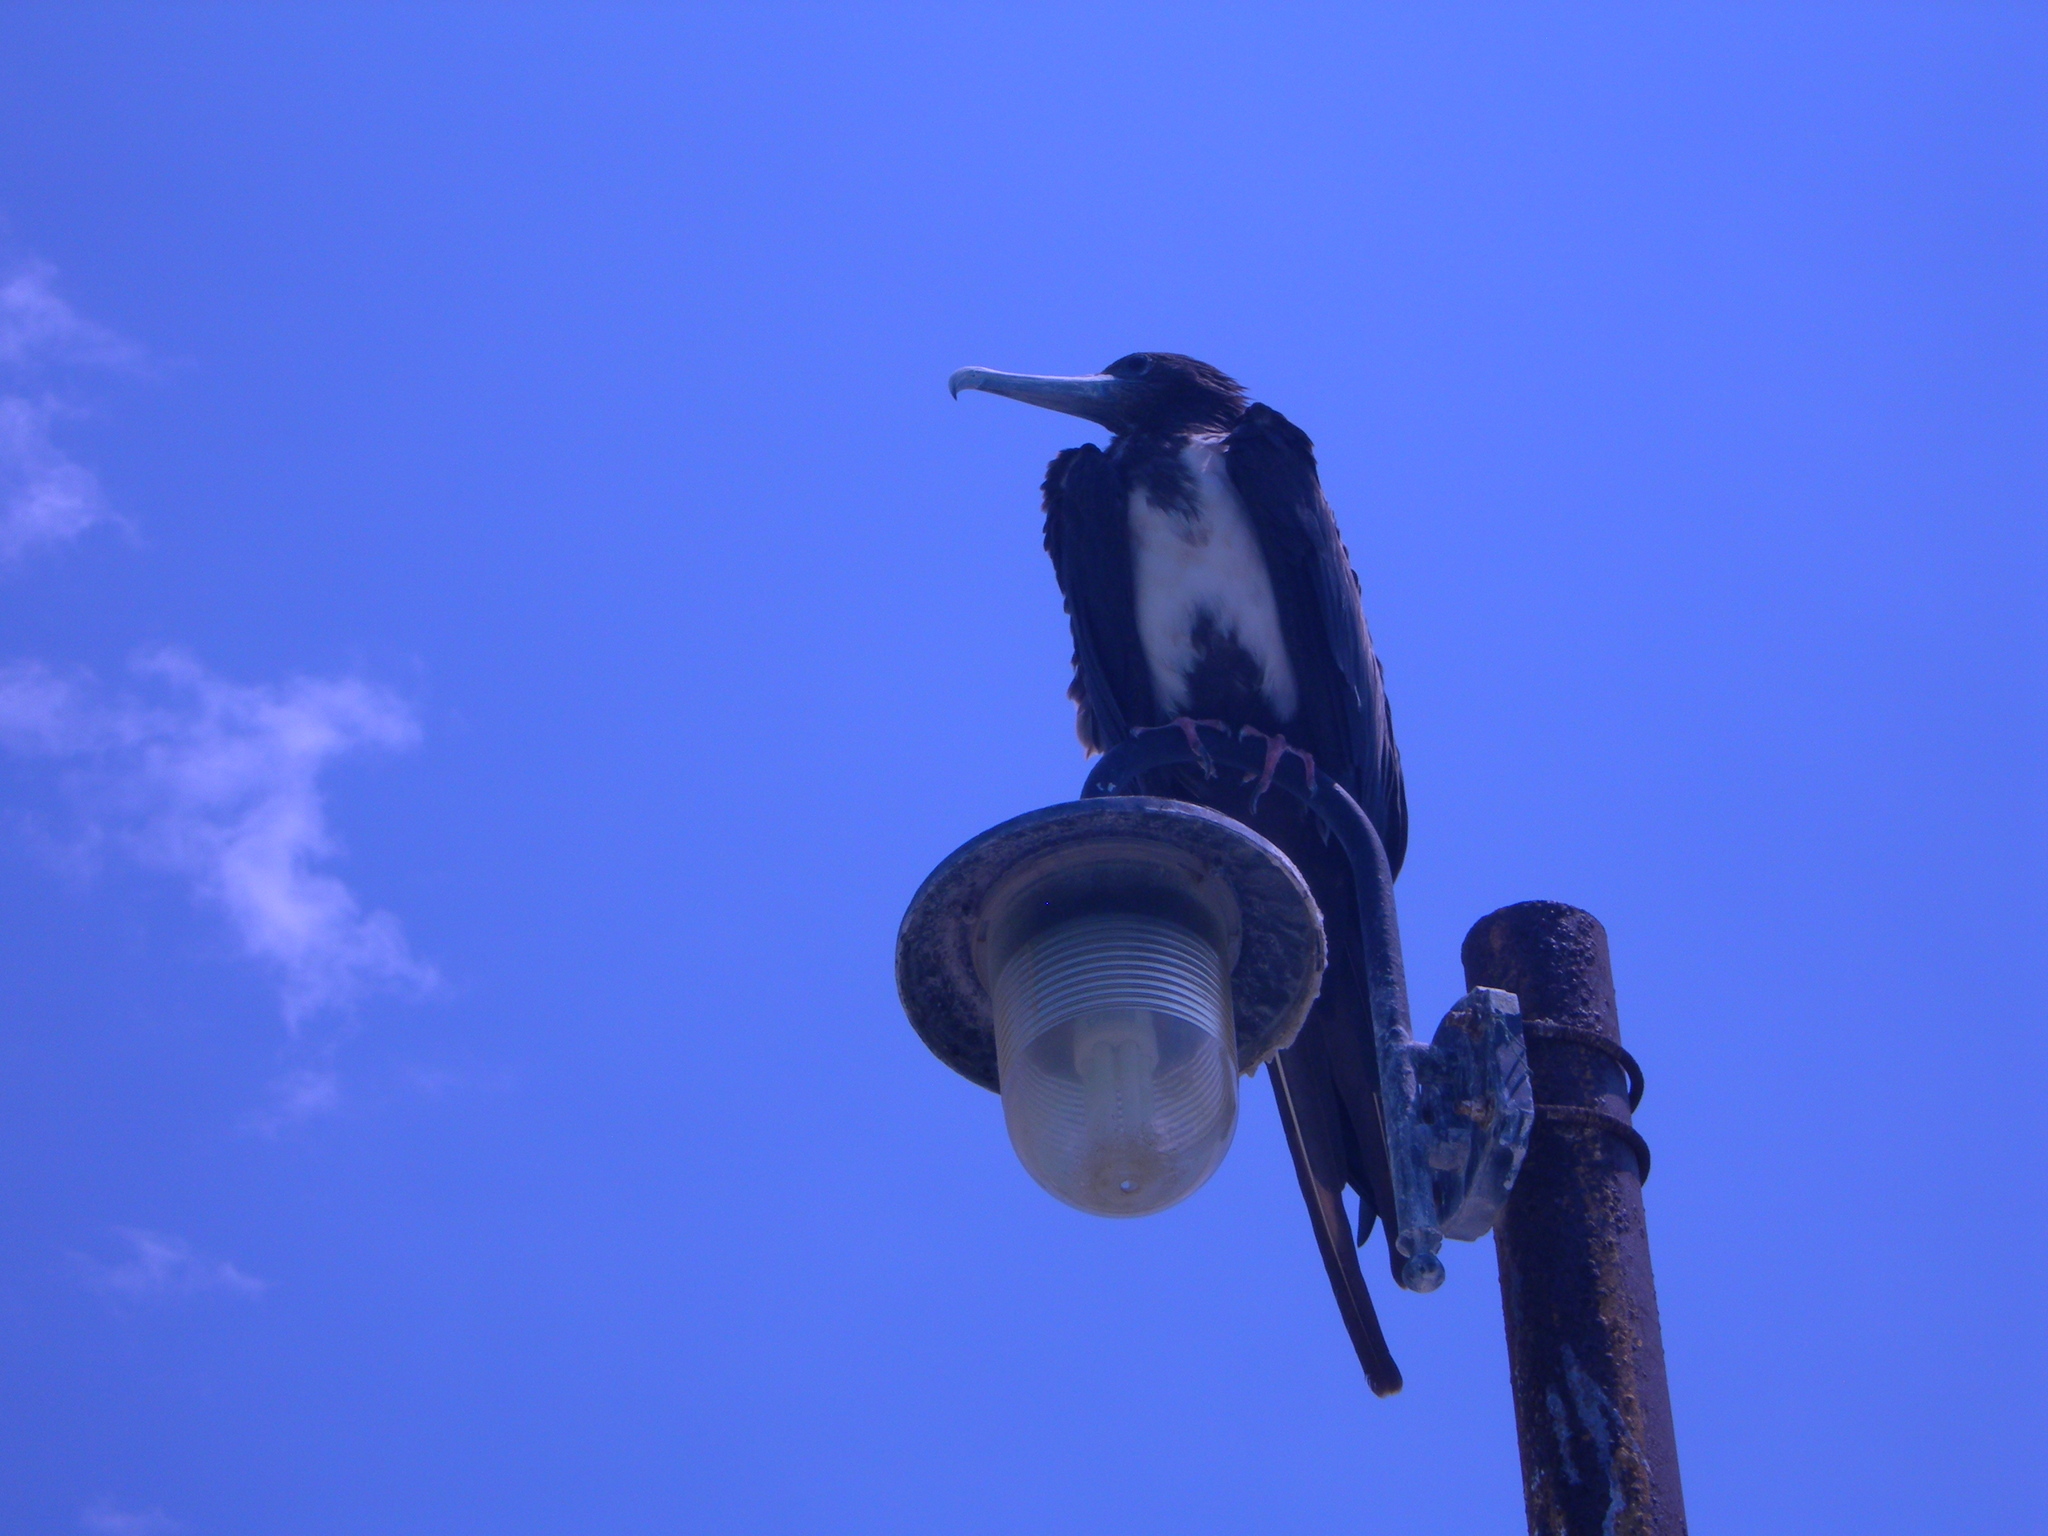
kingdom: Animalia
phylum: Chordata
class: Aves
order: Suliformes
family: Fregatidae
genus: Fregata
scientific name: Fregata magnificens
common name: Magnificent frigatebird
